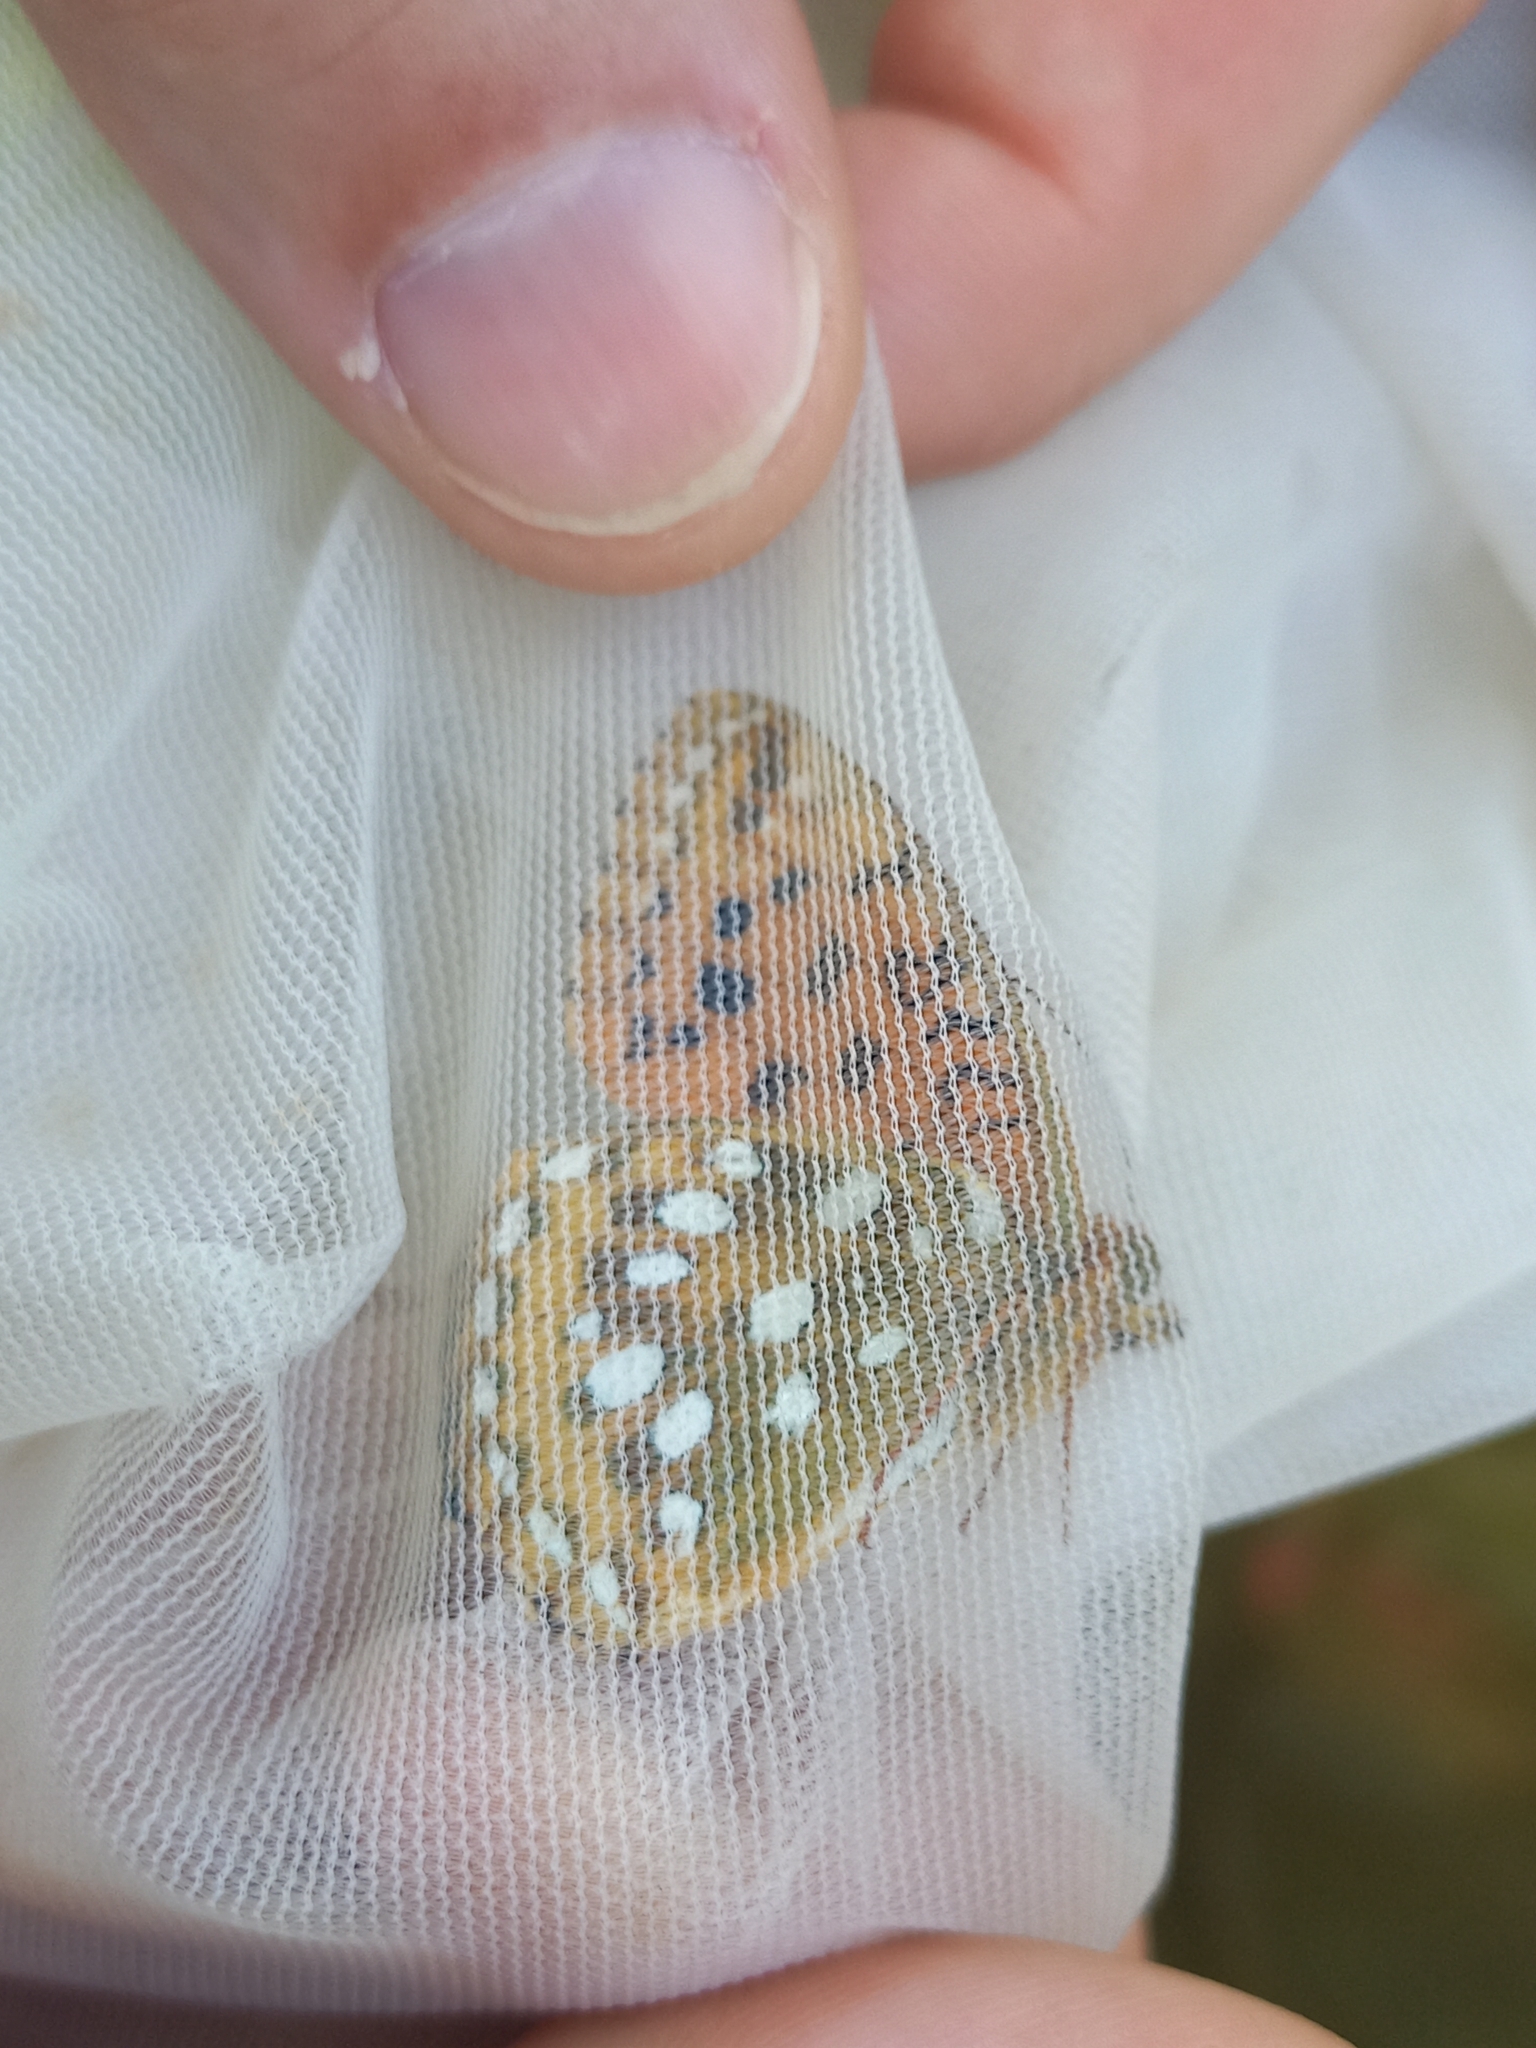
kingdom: Animalia
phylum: Arthropoda
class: Insecta
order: Lepidoptera
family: Nymphalidae
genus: Speyeria
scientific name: Speyeria aglaja
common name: Dark green fritillary
